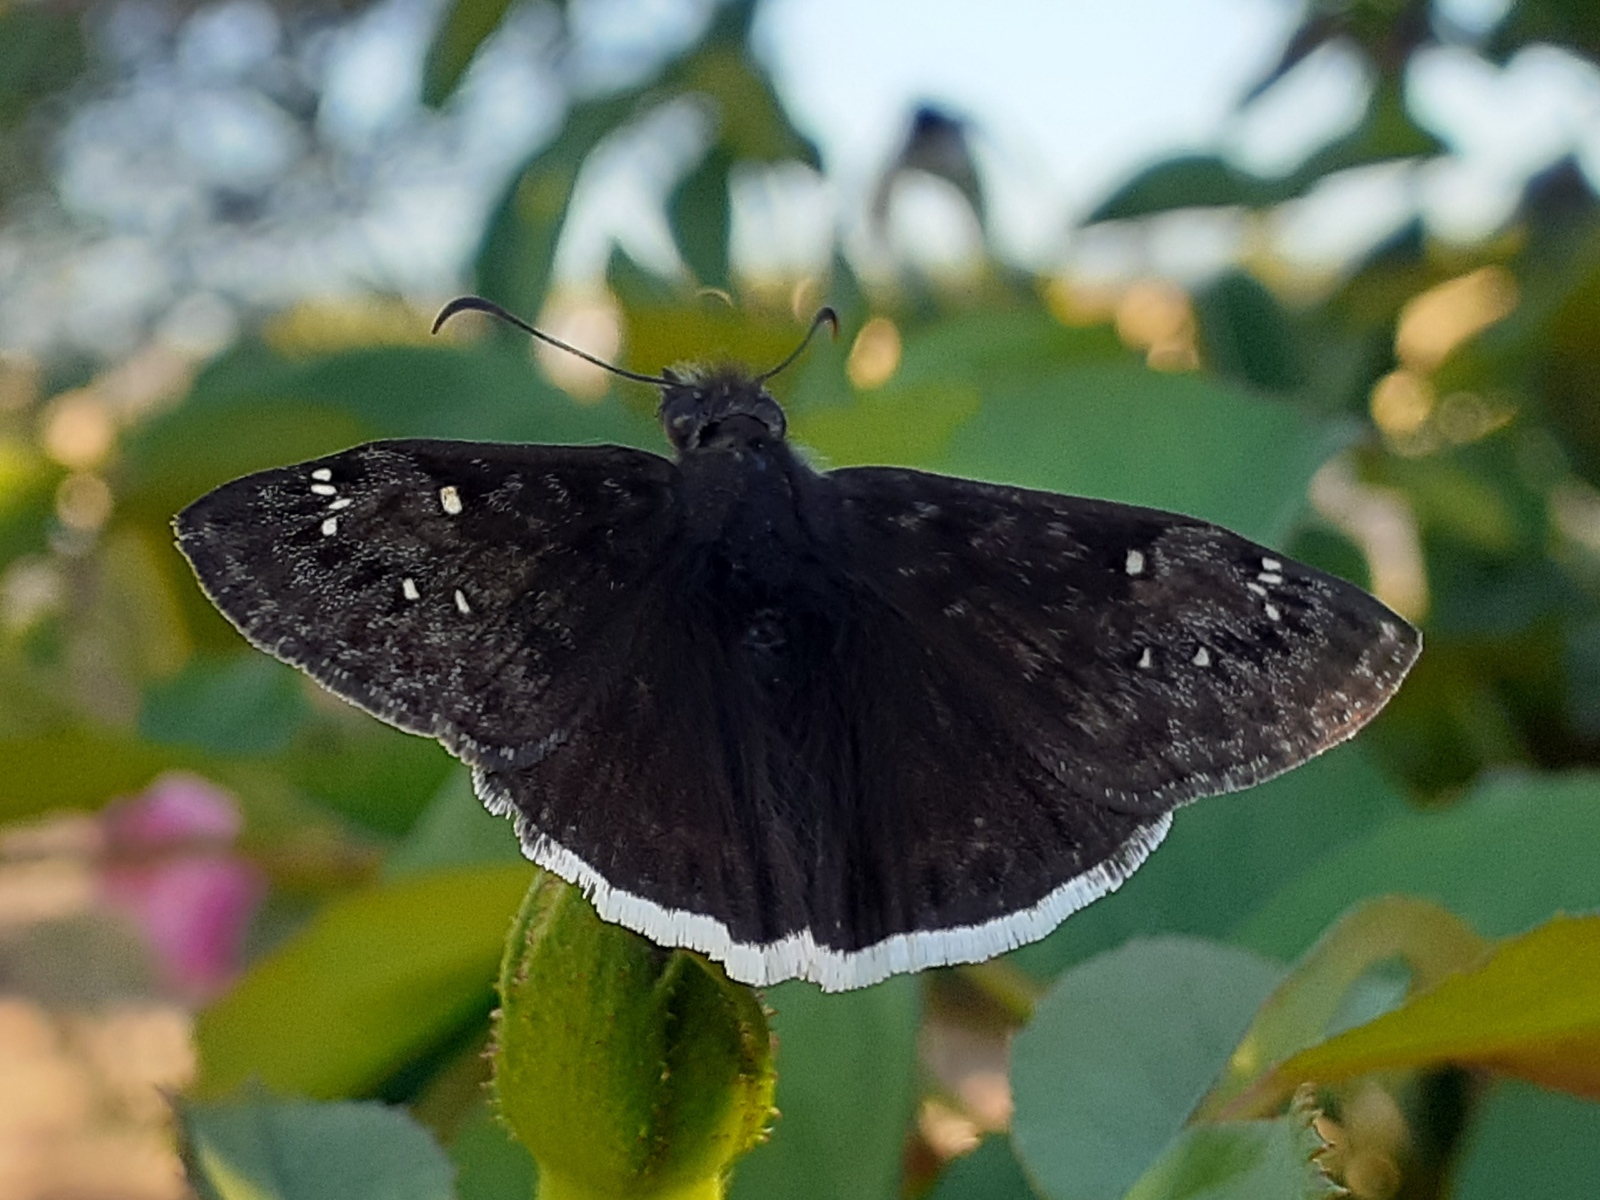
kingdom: Animalia
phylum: Arthropoda
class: Insecta
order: Lepidoptera
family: Hesperiidae
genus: Erynnis
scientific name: Erynnis tristis
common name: Mournful duskywing
